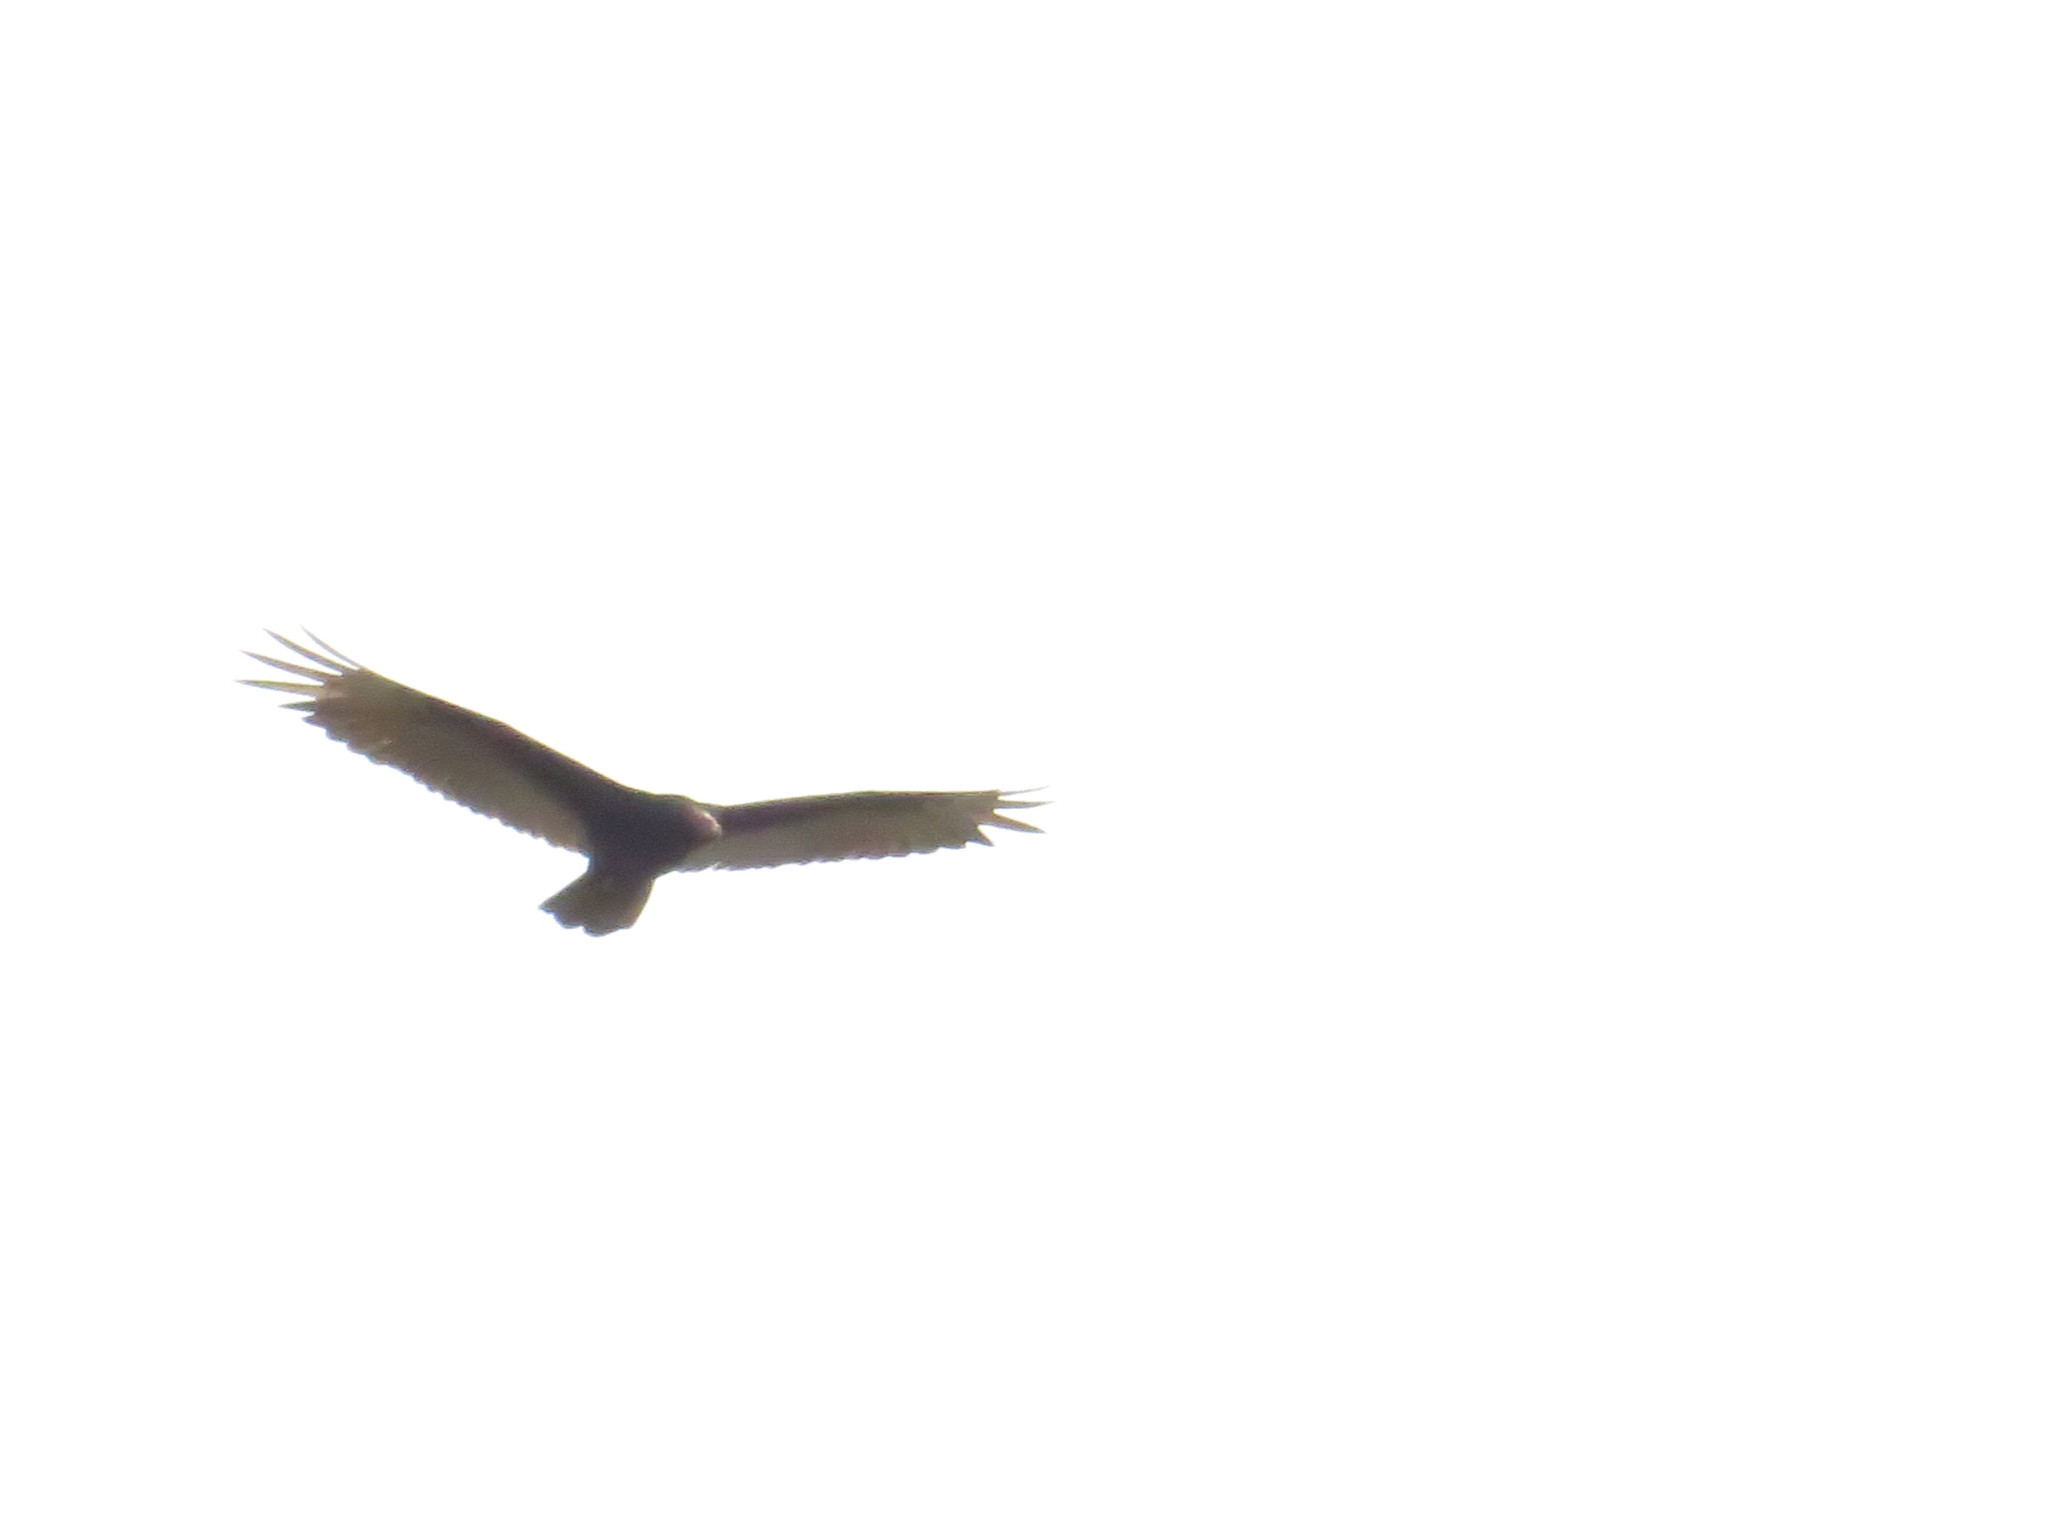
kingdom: Animalia
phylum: Chordata
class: Aves
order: Accipitriformes
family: Cathartidae
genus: Cathartes
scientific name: Cathartes aura
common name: Turkey vulture
